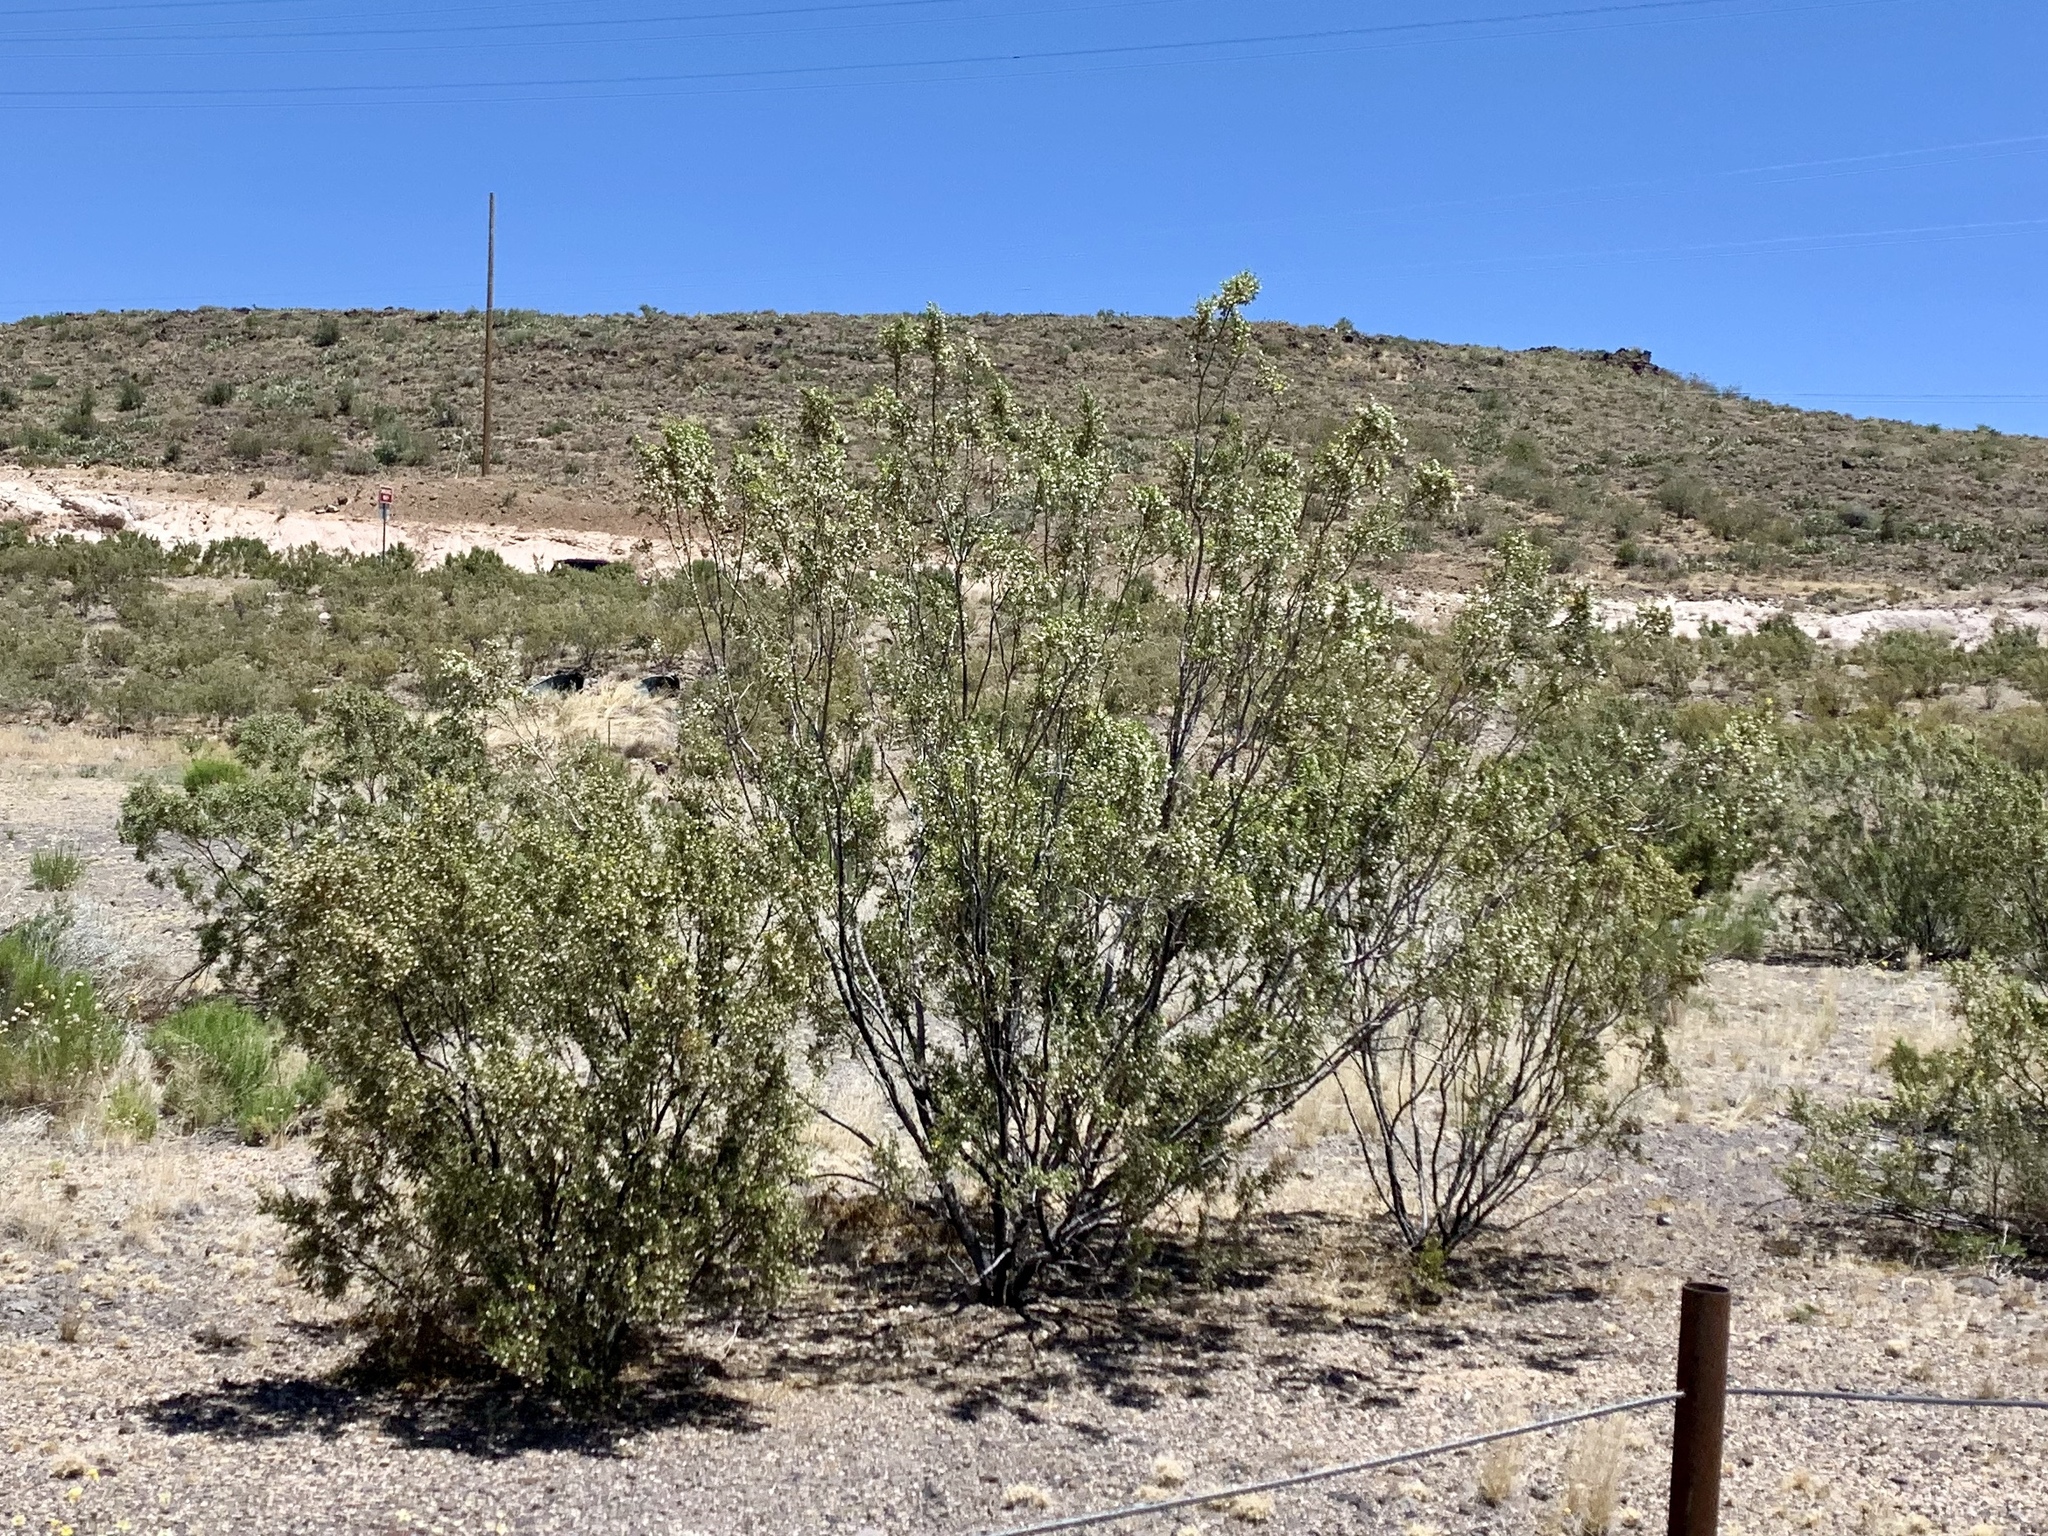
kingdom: Plantae
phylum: Tracheophyta
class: Magnoliopsida
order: Zygophyllales
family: Zygophyllaceae
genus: Larrea
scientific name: Larrea tridentata
